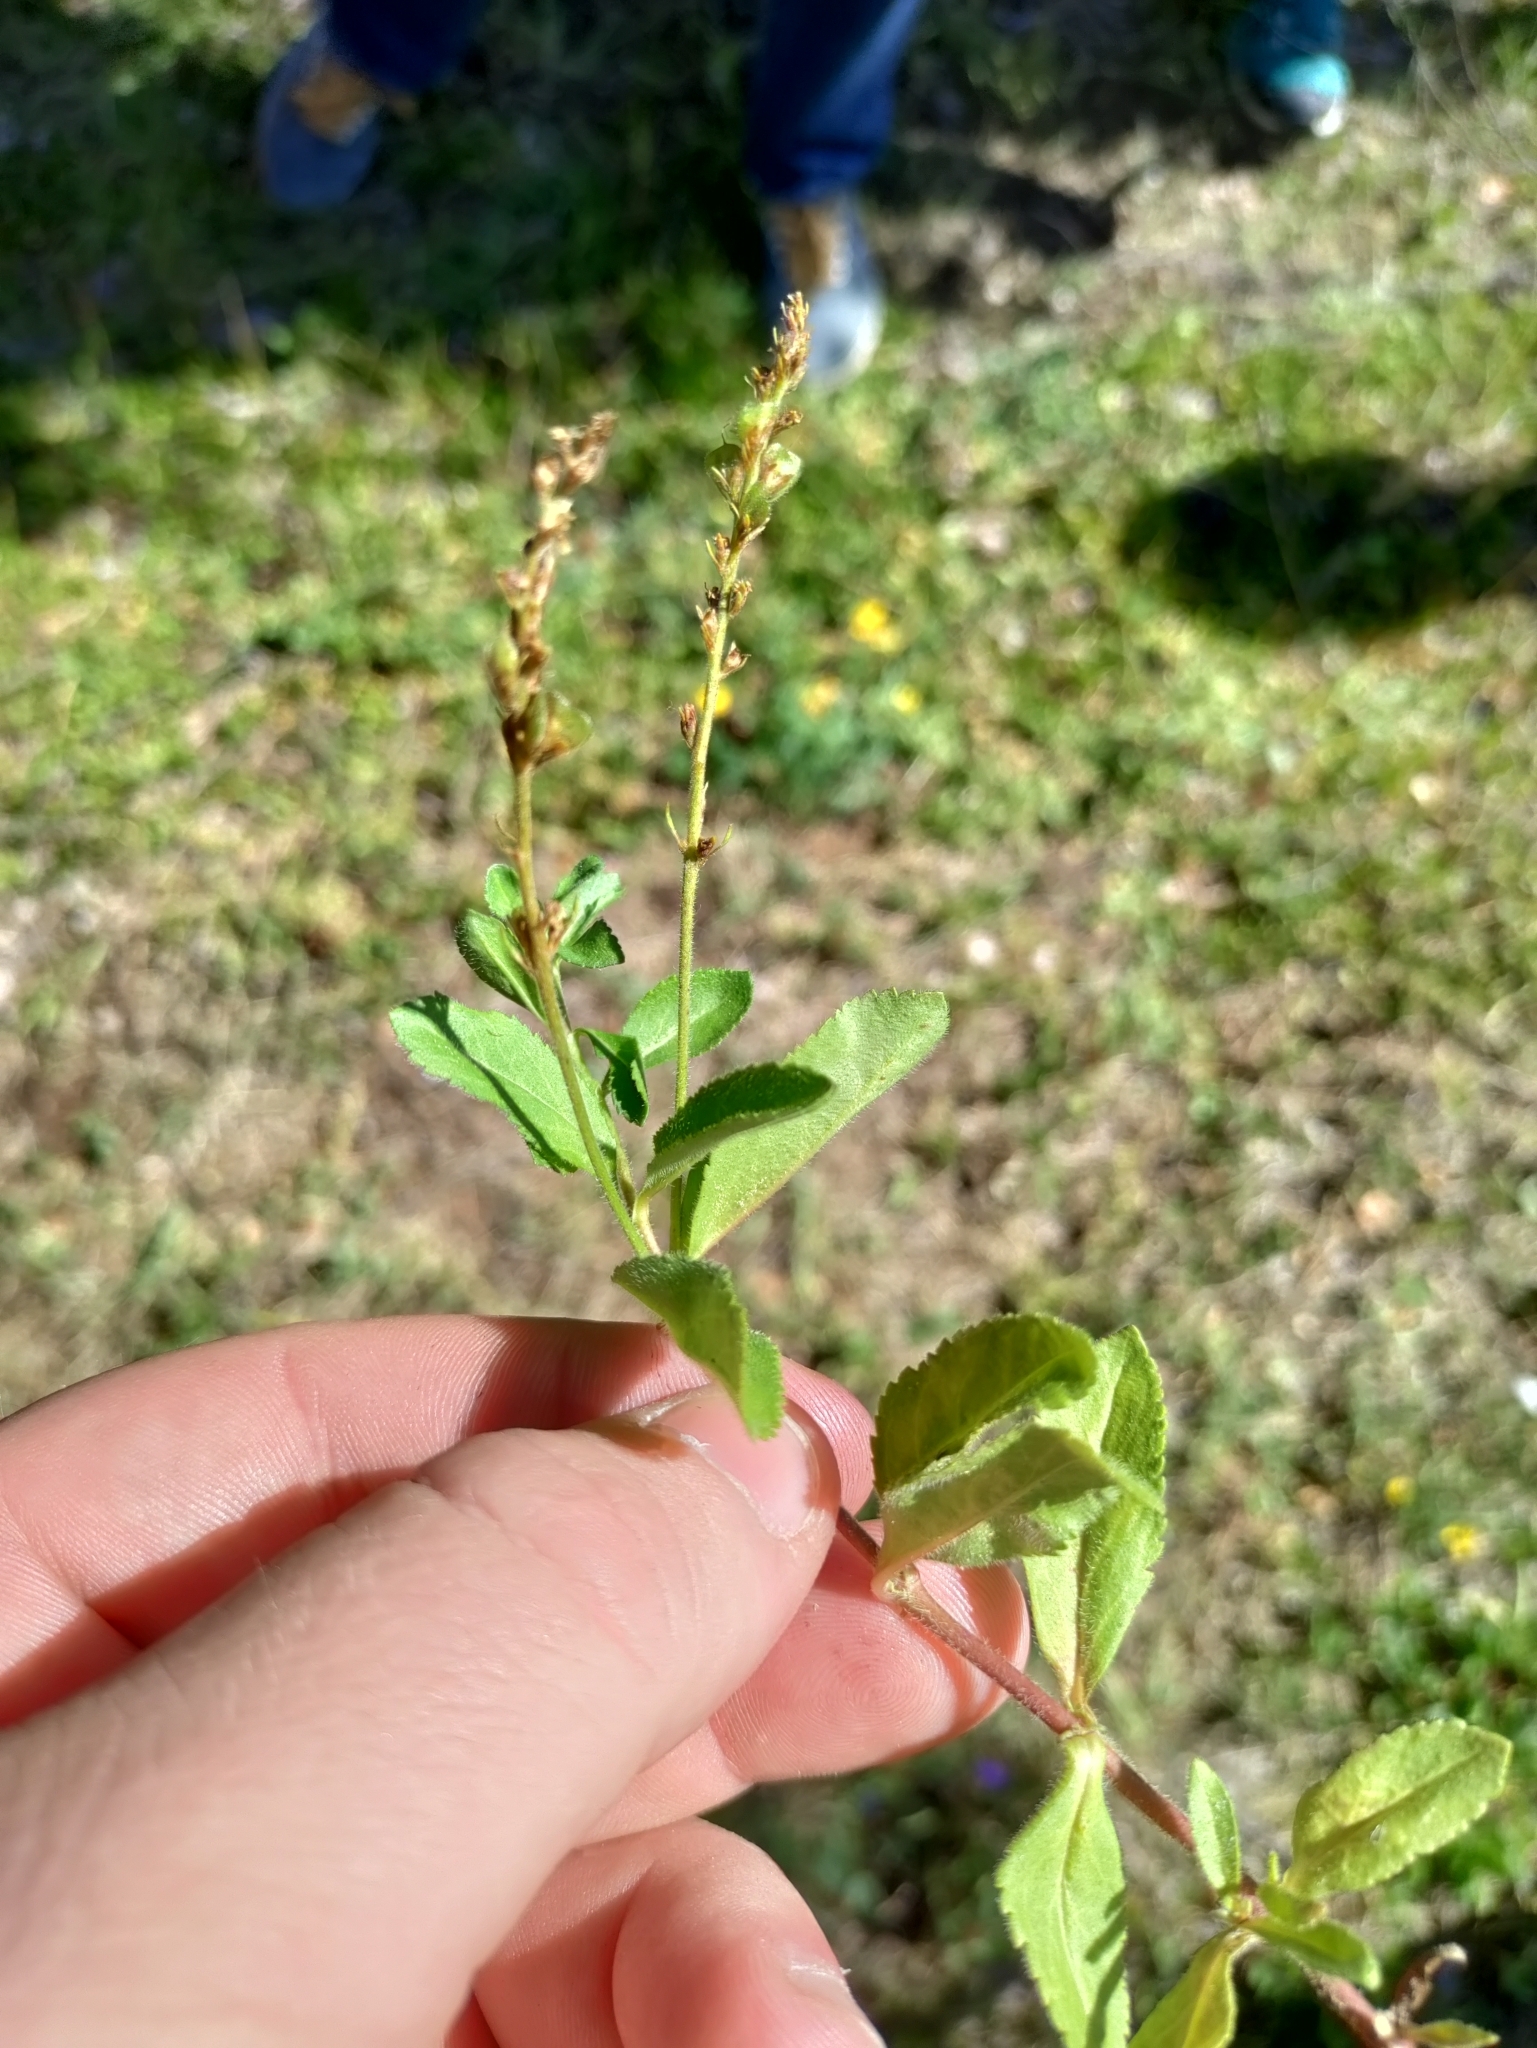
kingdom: Plantae
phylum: Tracheophyta
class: Magnoliopsida
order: Lamiales
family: Plantaginaceae
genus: Veronica
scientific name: Veronica officinalis
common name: Common speedwell
